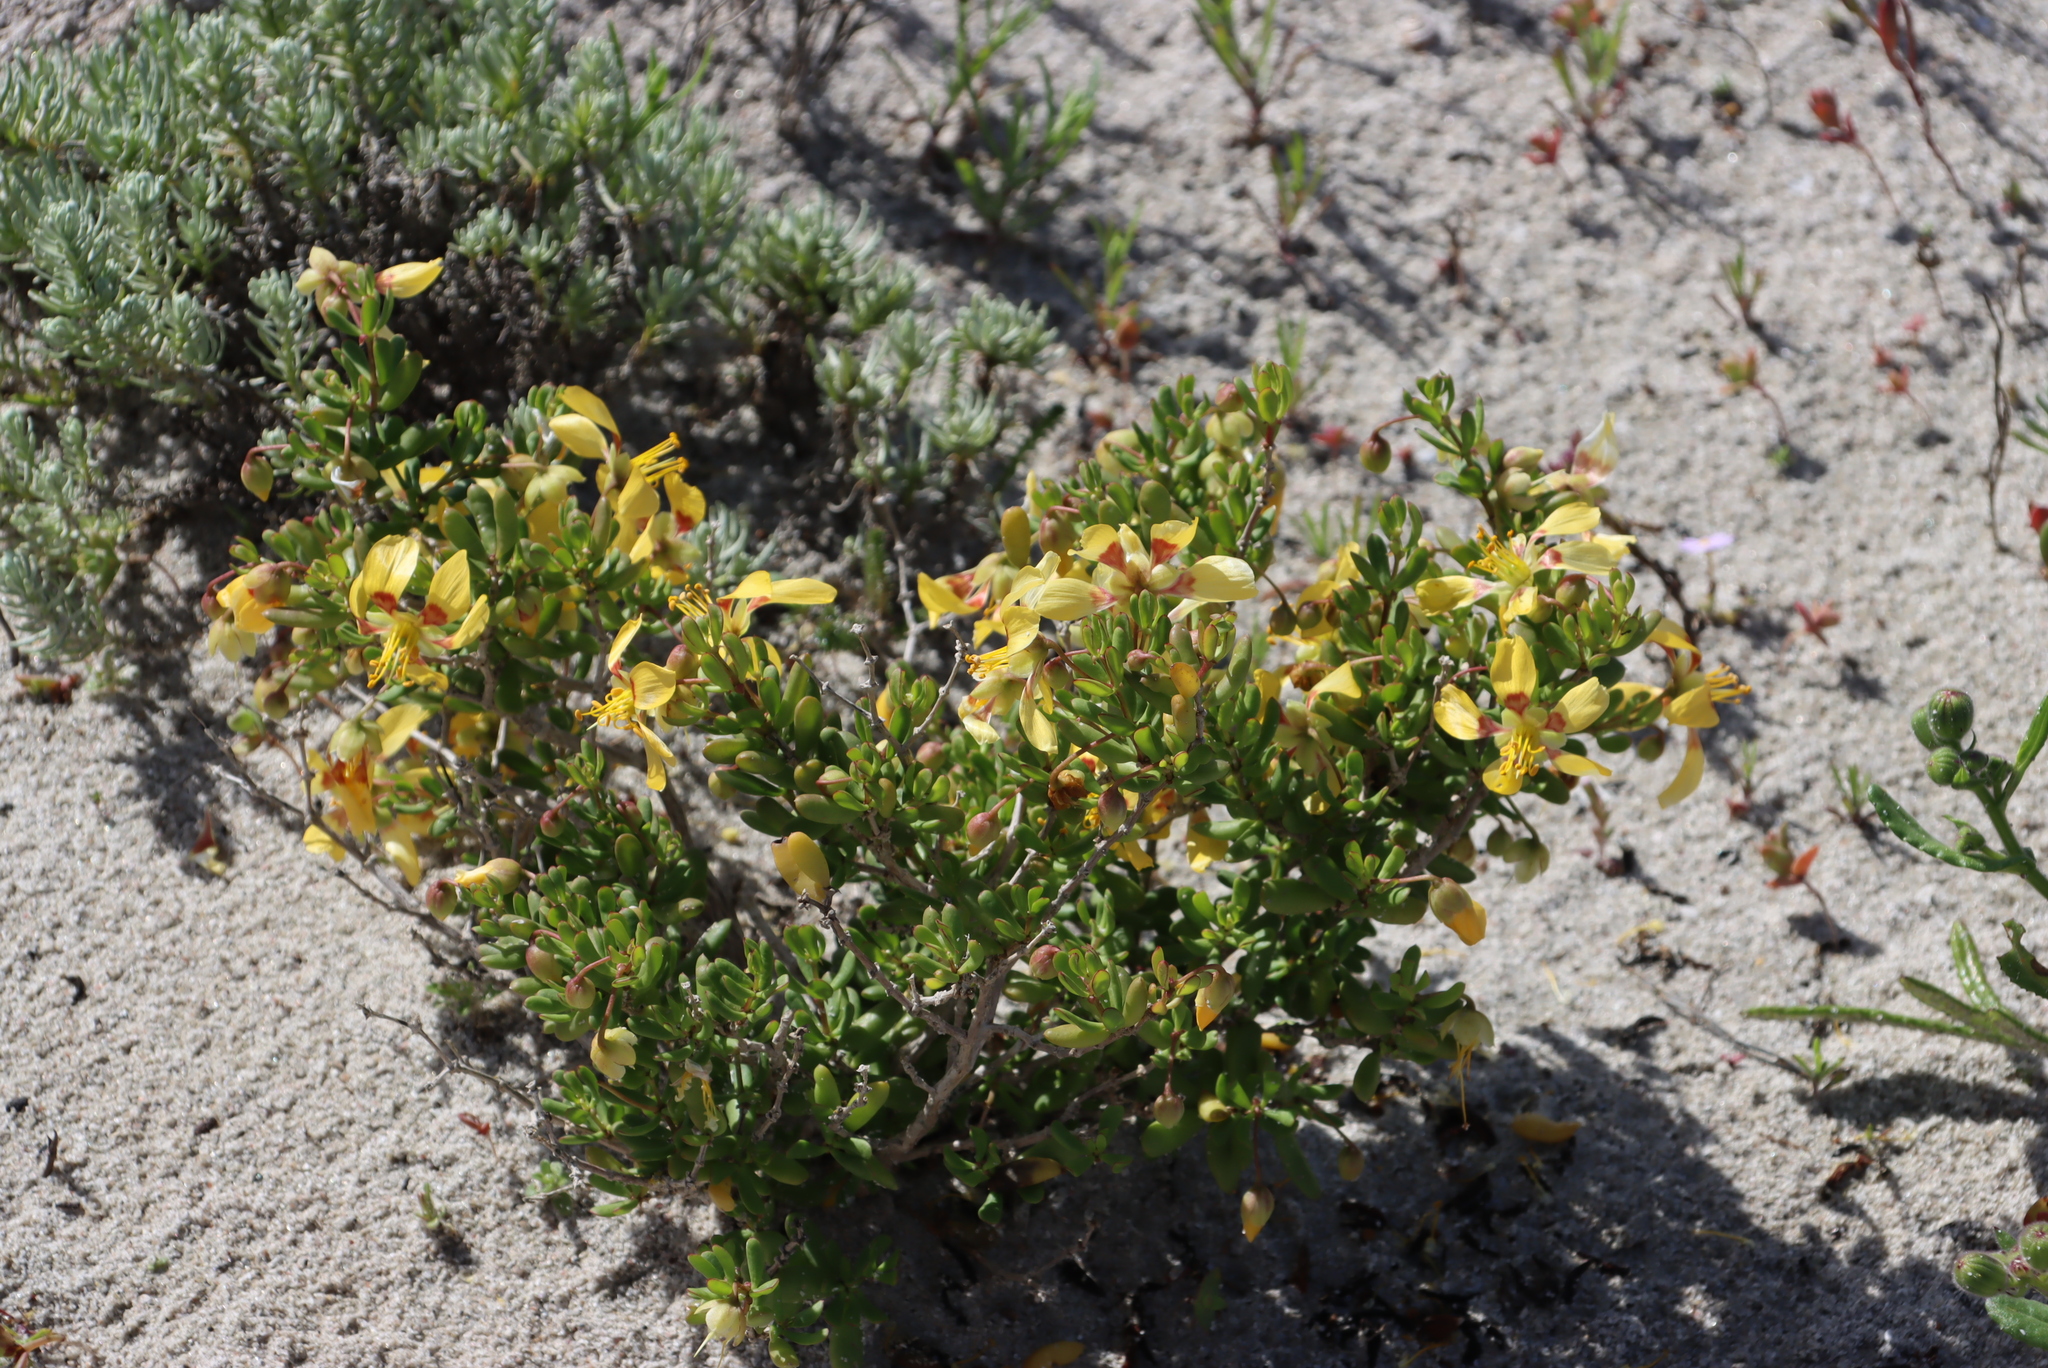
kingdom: Plantae
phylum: Tracheophyta
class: Magnoliopsida
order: Zygophyllales
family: Zygophyllaceae
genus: Roepera
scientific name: Roepera flexuosa
